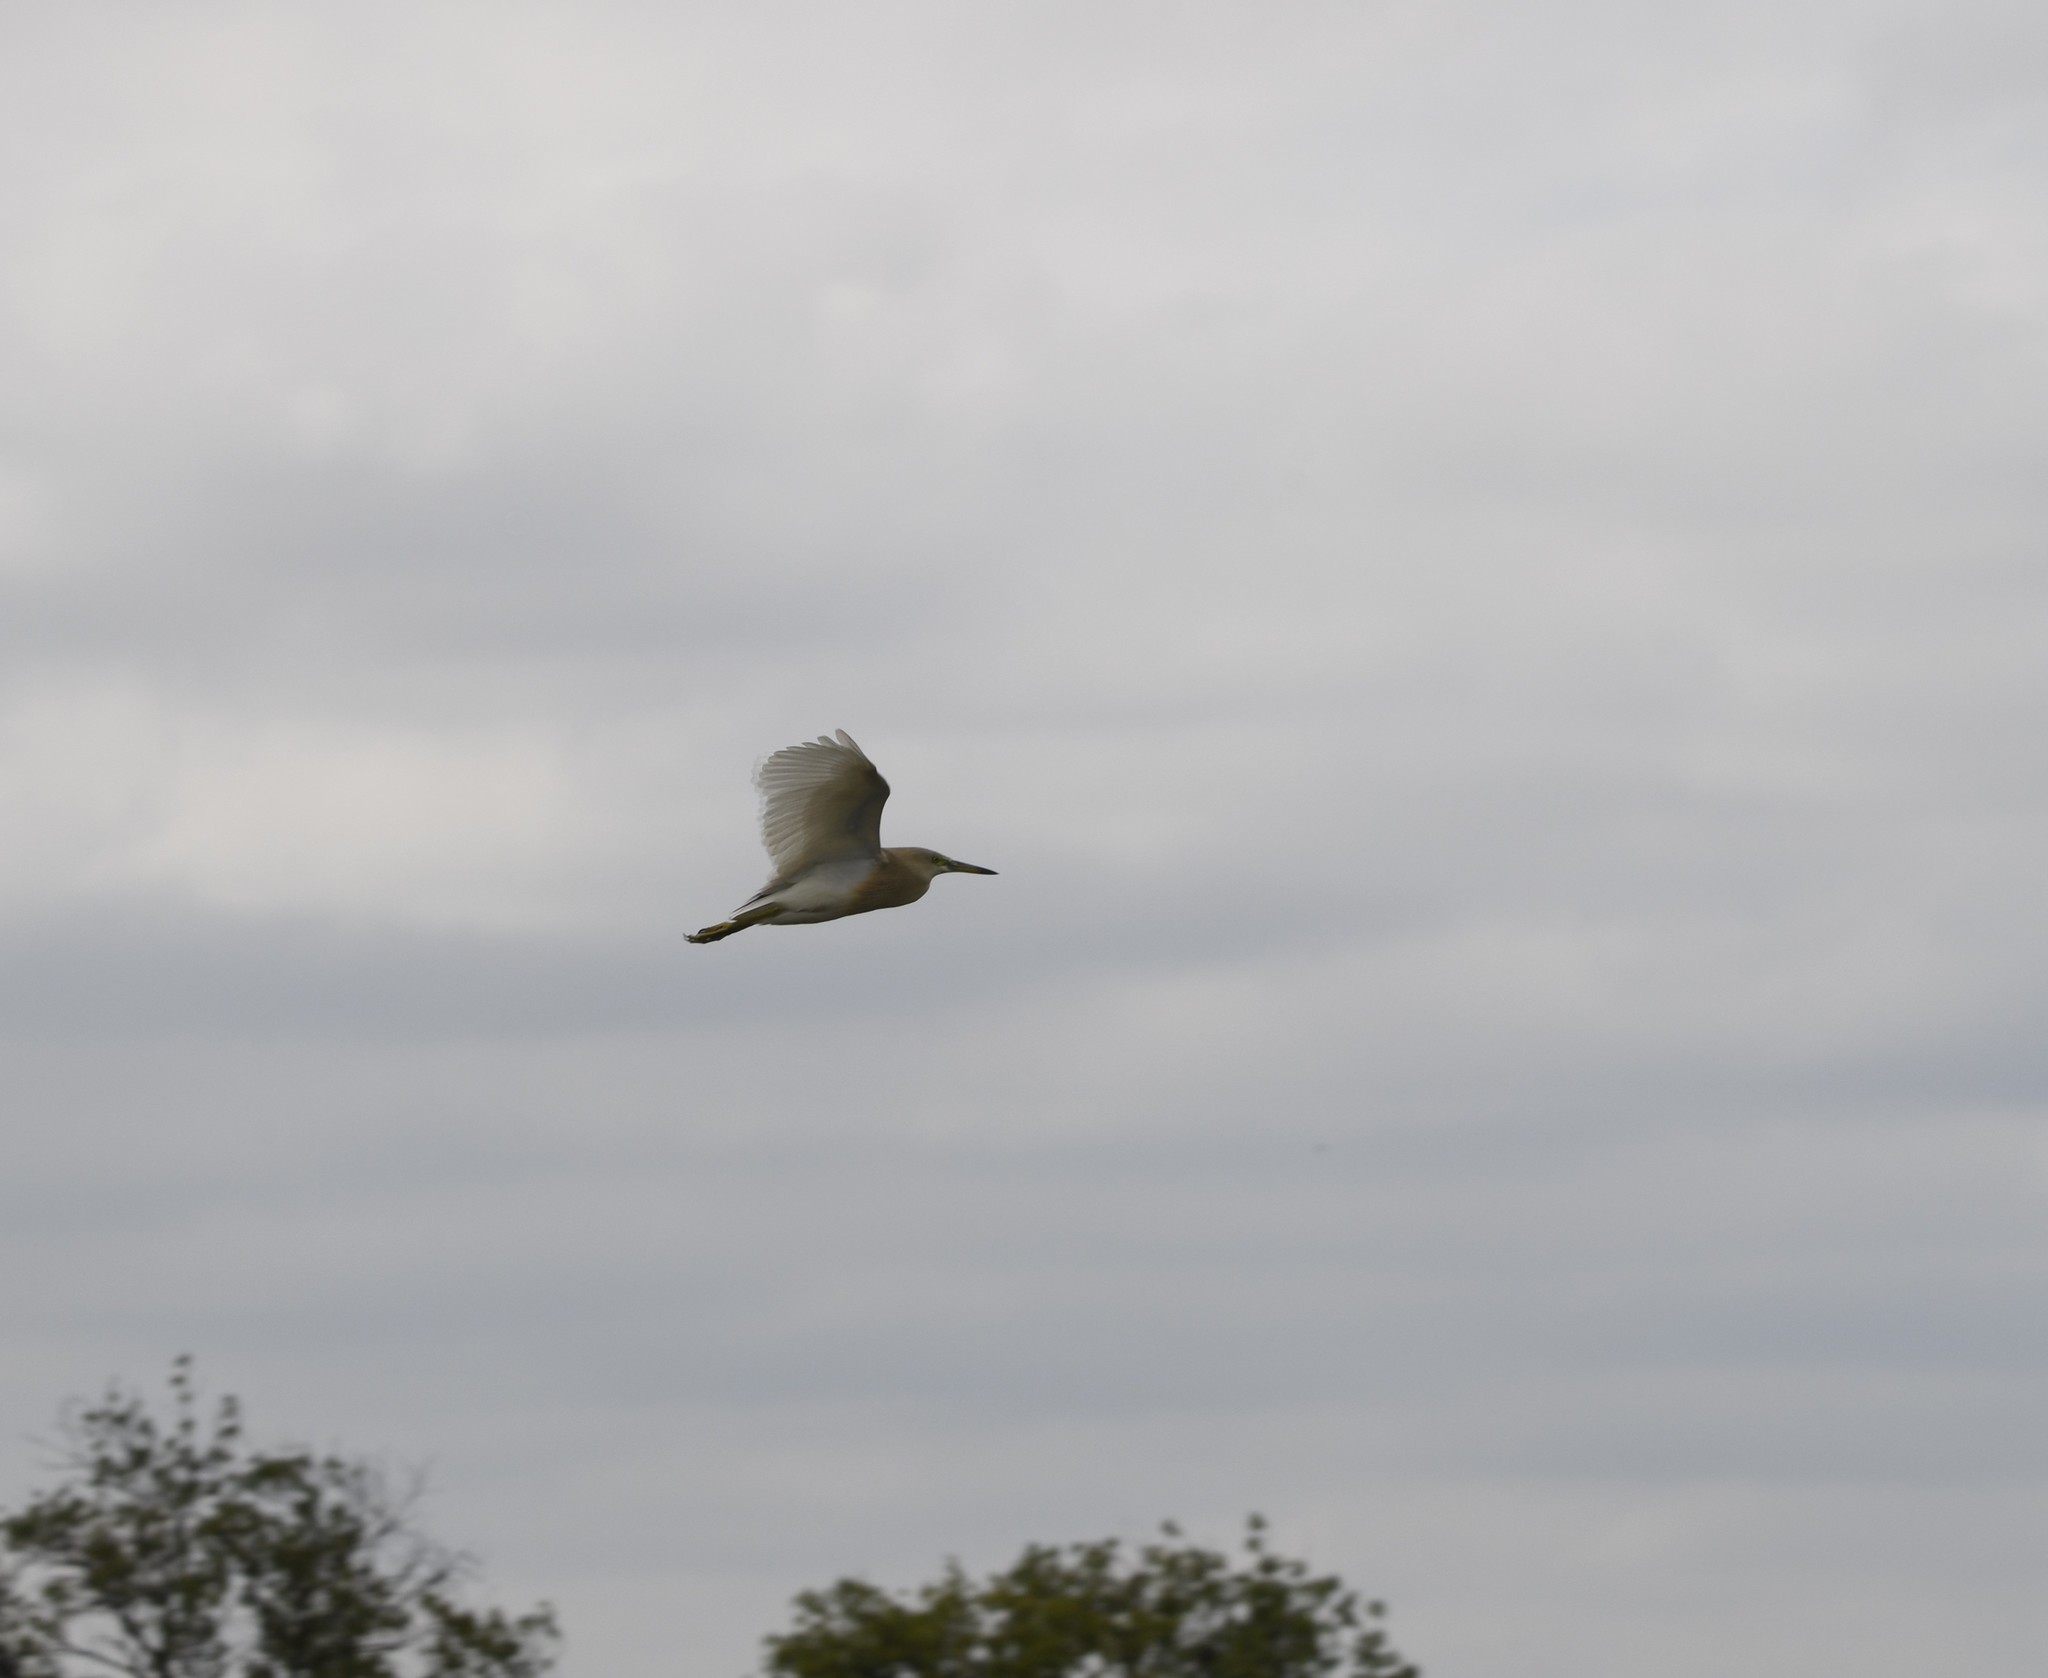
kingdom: Animalia
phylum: Chordata
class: Aves
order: Pelecaniformes
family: Ardeidae
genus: Ardeola
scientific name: Ardeola grayii
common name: Indian pond heron
